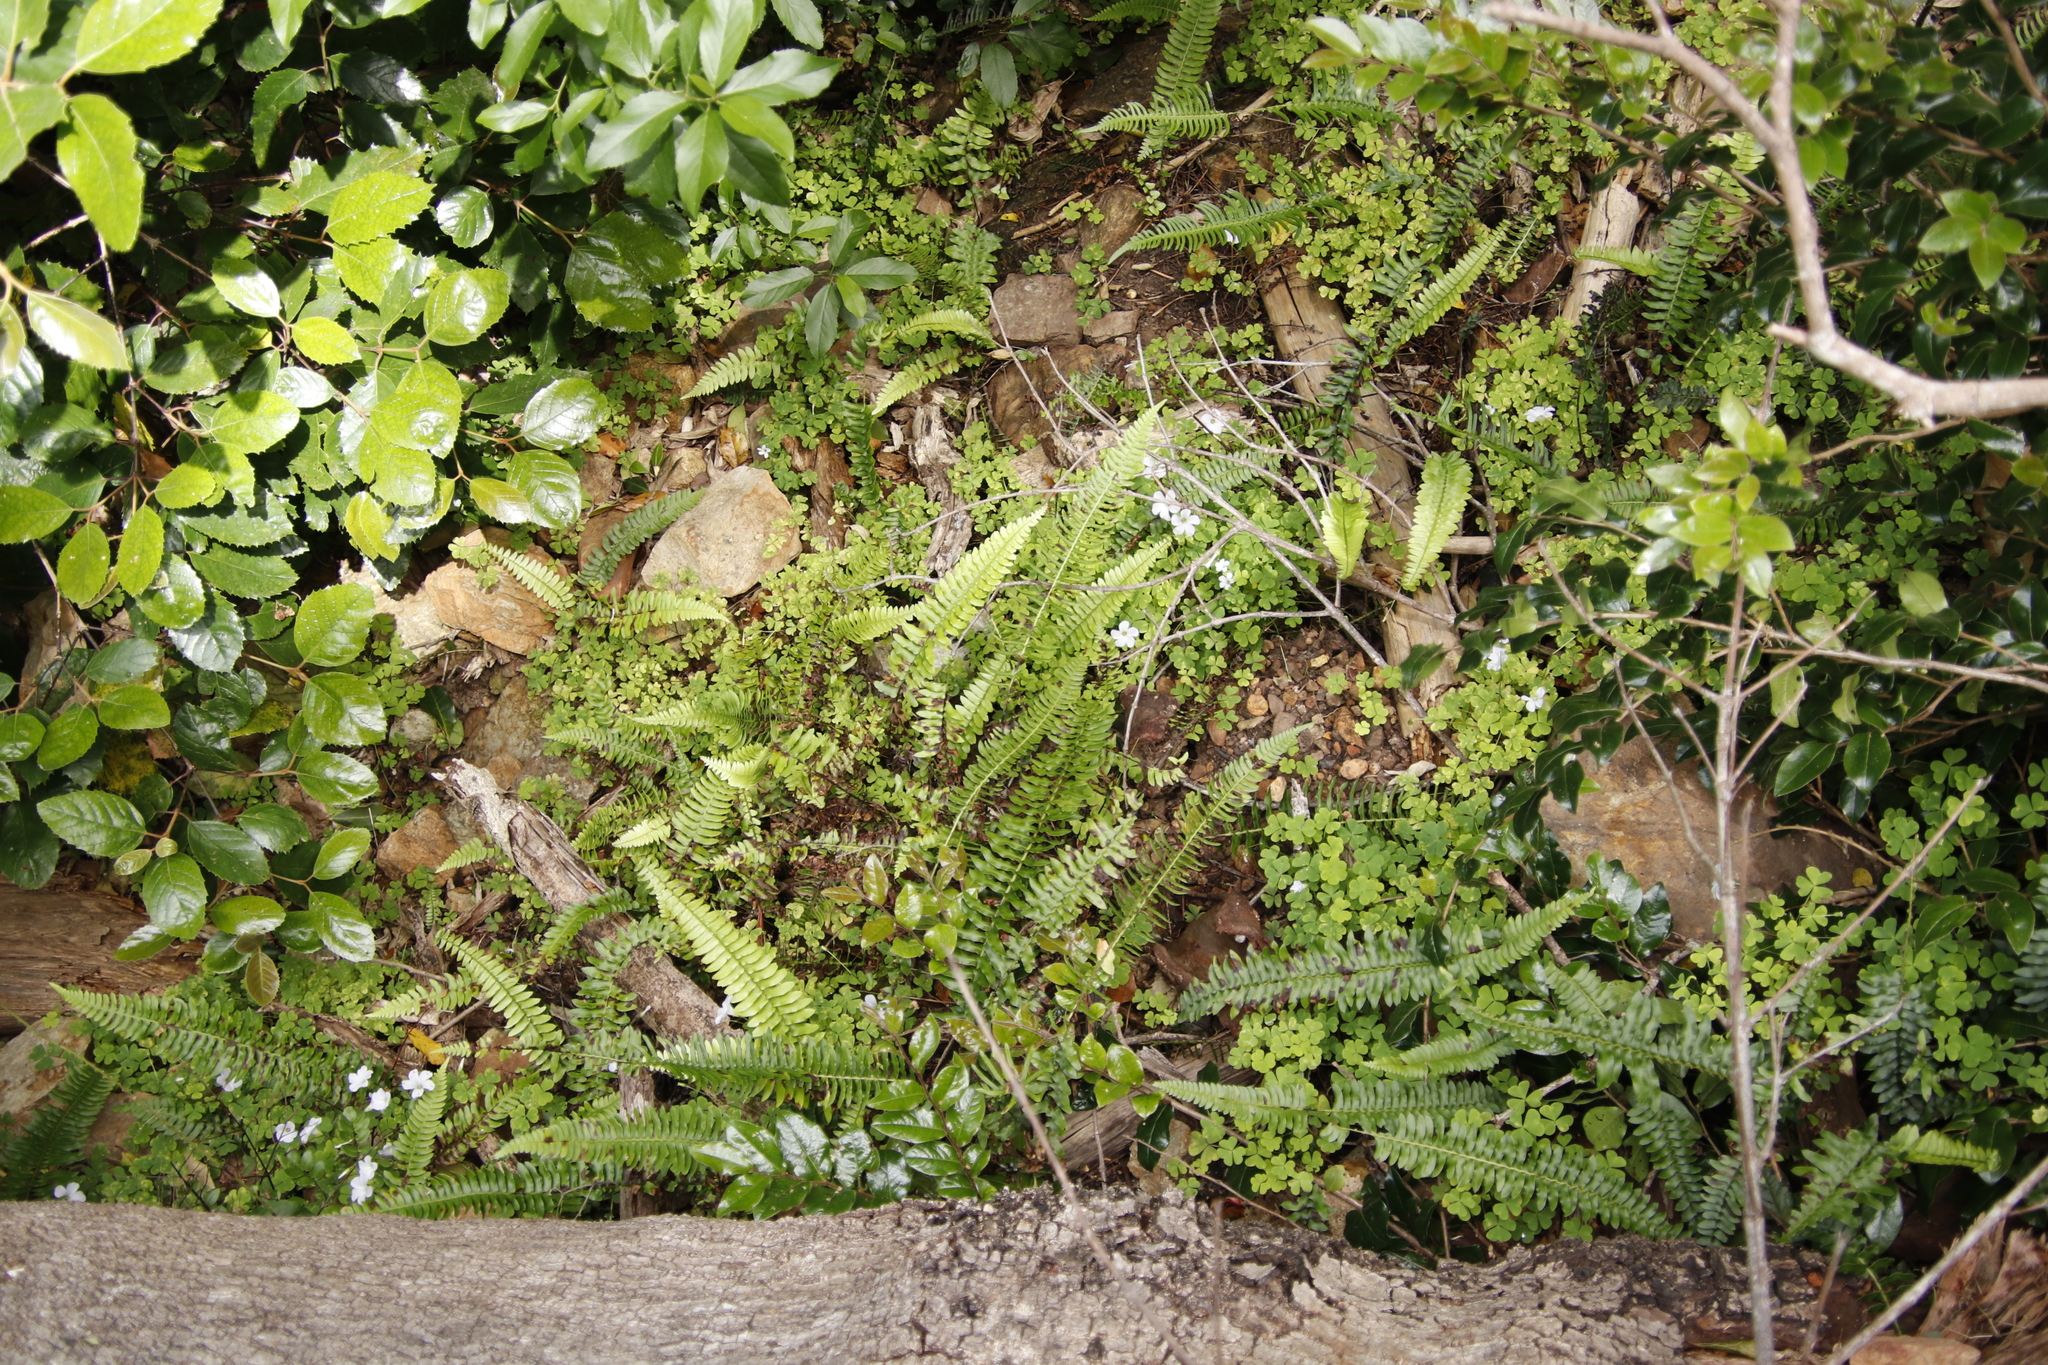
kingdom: Plantae
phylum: Tracheophyta
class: Polypodiopsida
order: Polypodiales
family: Blechnaceae
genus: Blechnum
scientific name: Blechnum punctulatum
